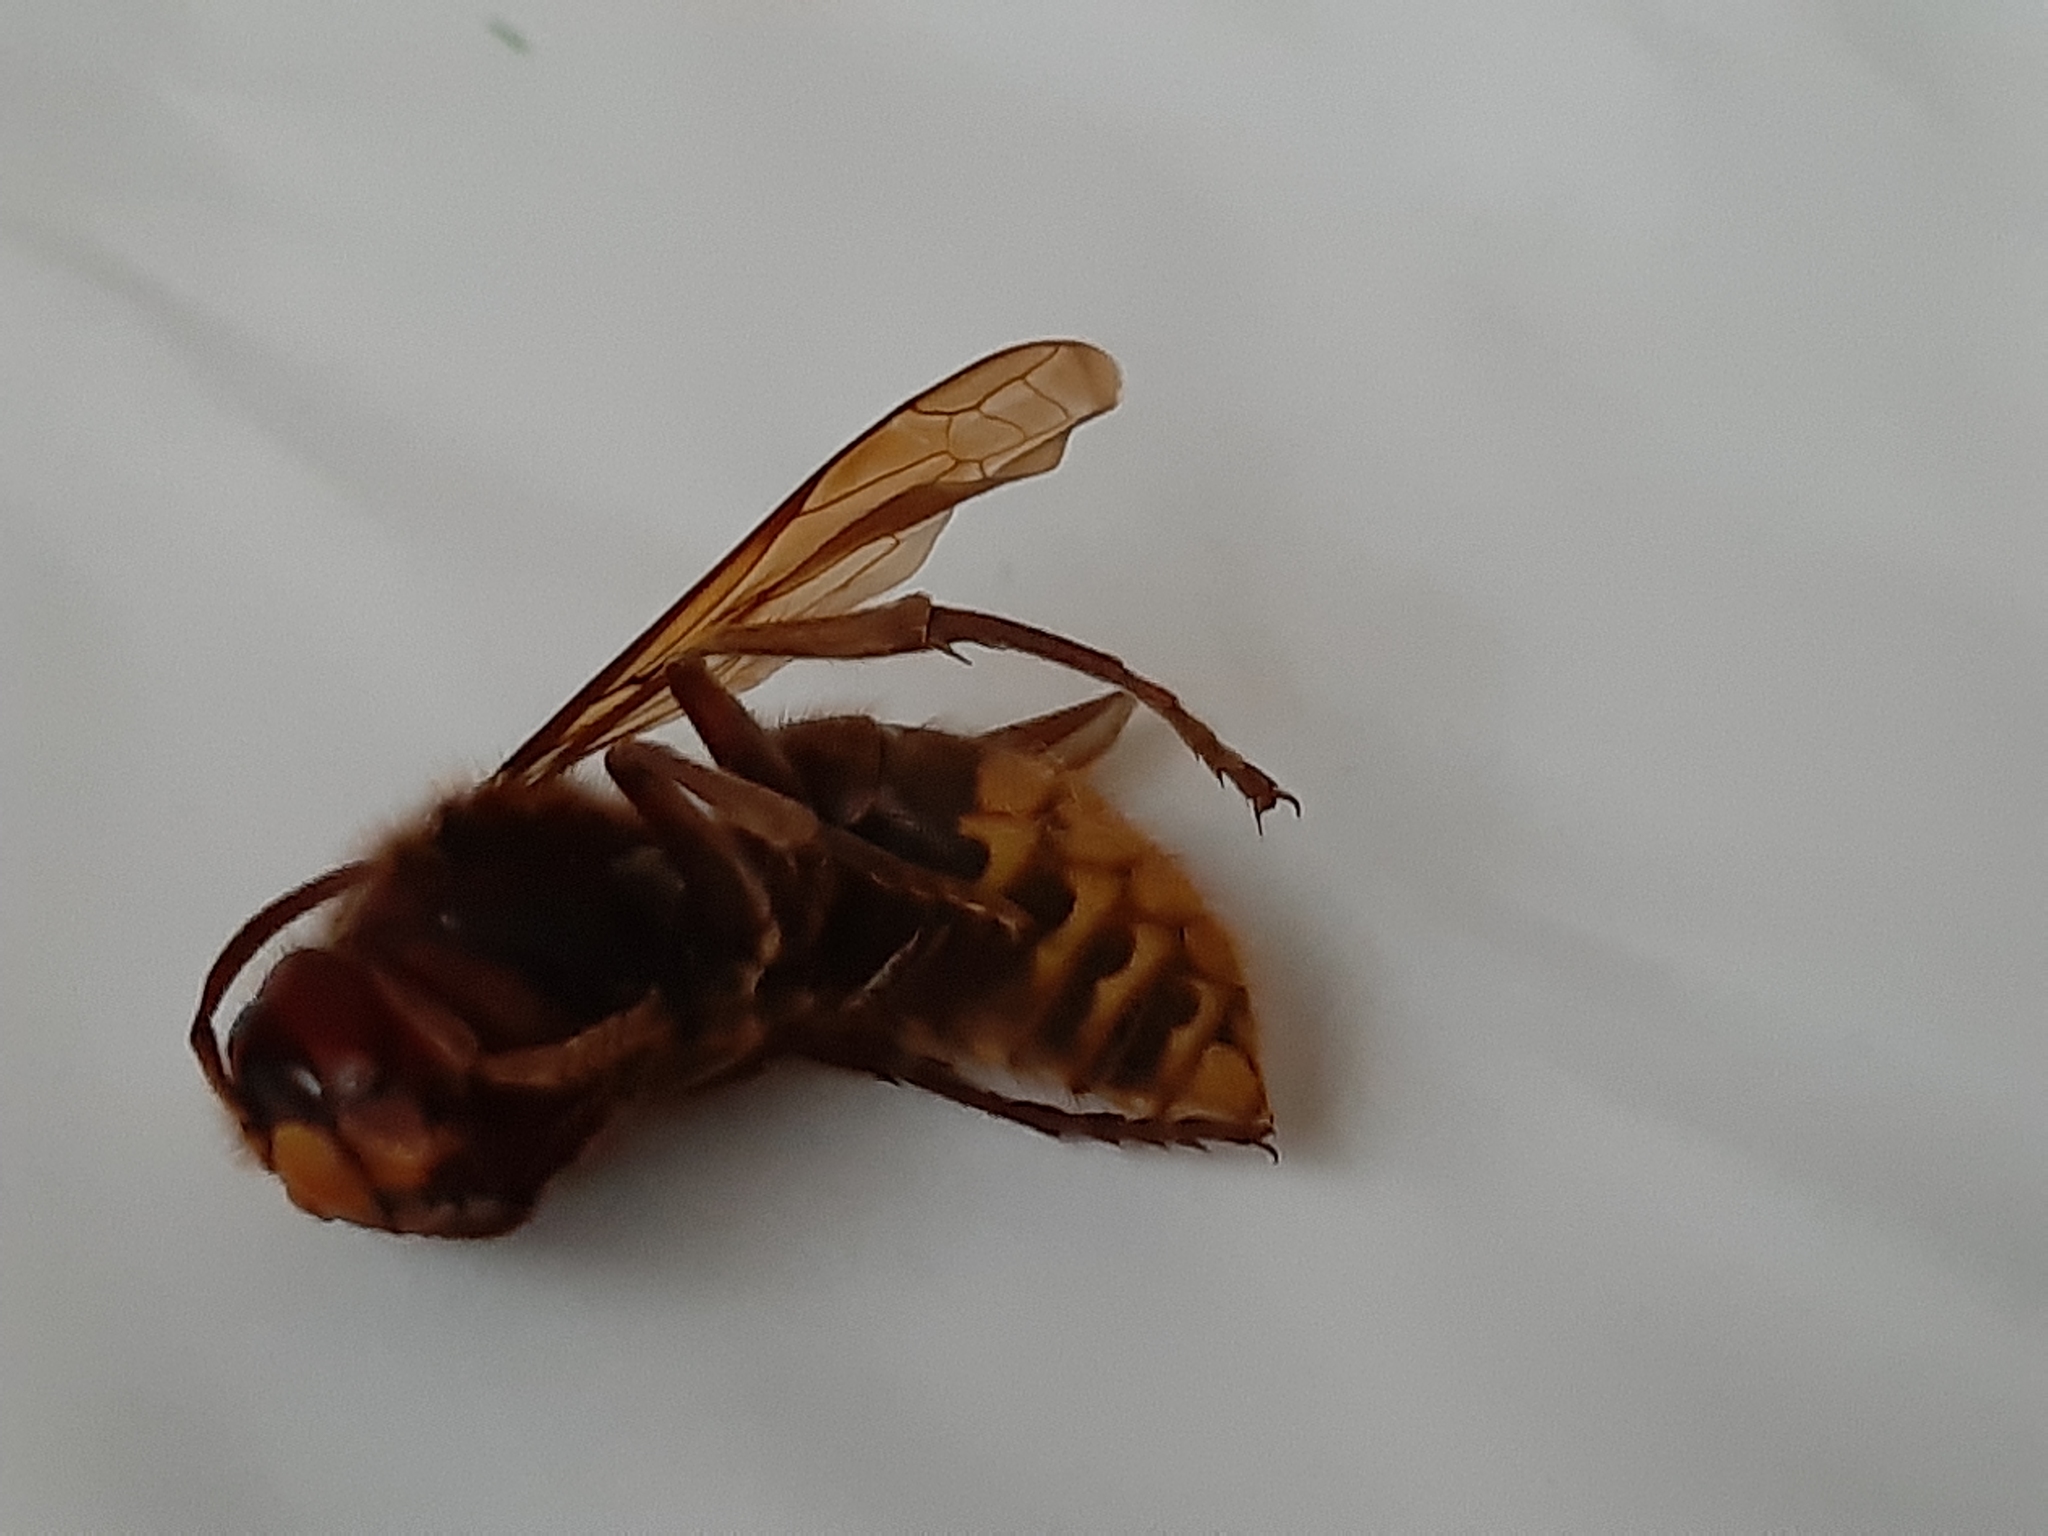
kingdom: Animalia
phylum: Arthropoda
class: Insecta
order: Hymenoptera
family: Vespidae
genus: Vespa
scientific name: Vespa crabro
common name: Hornet
